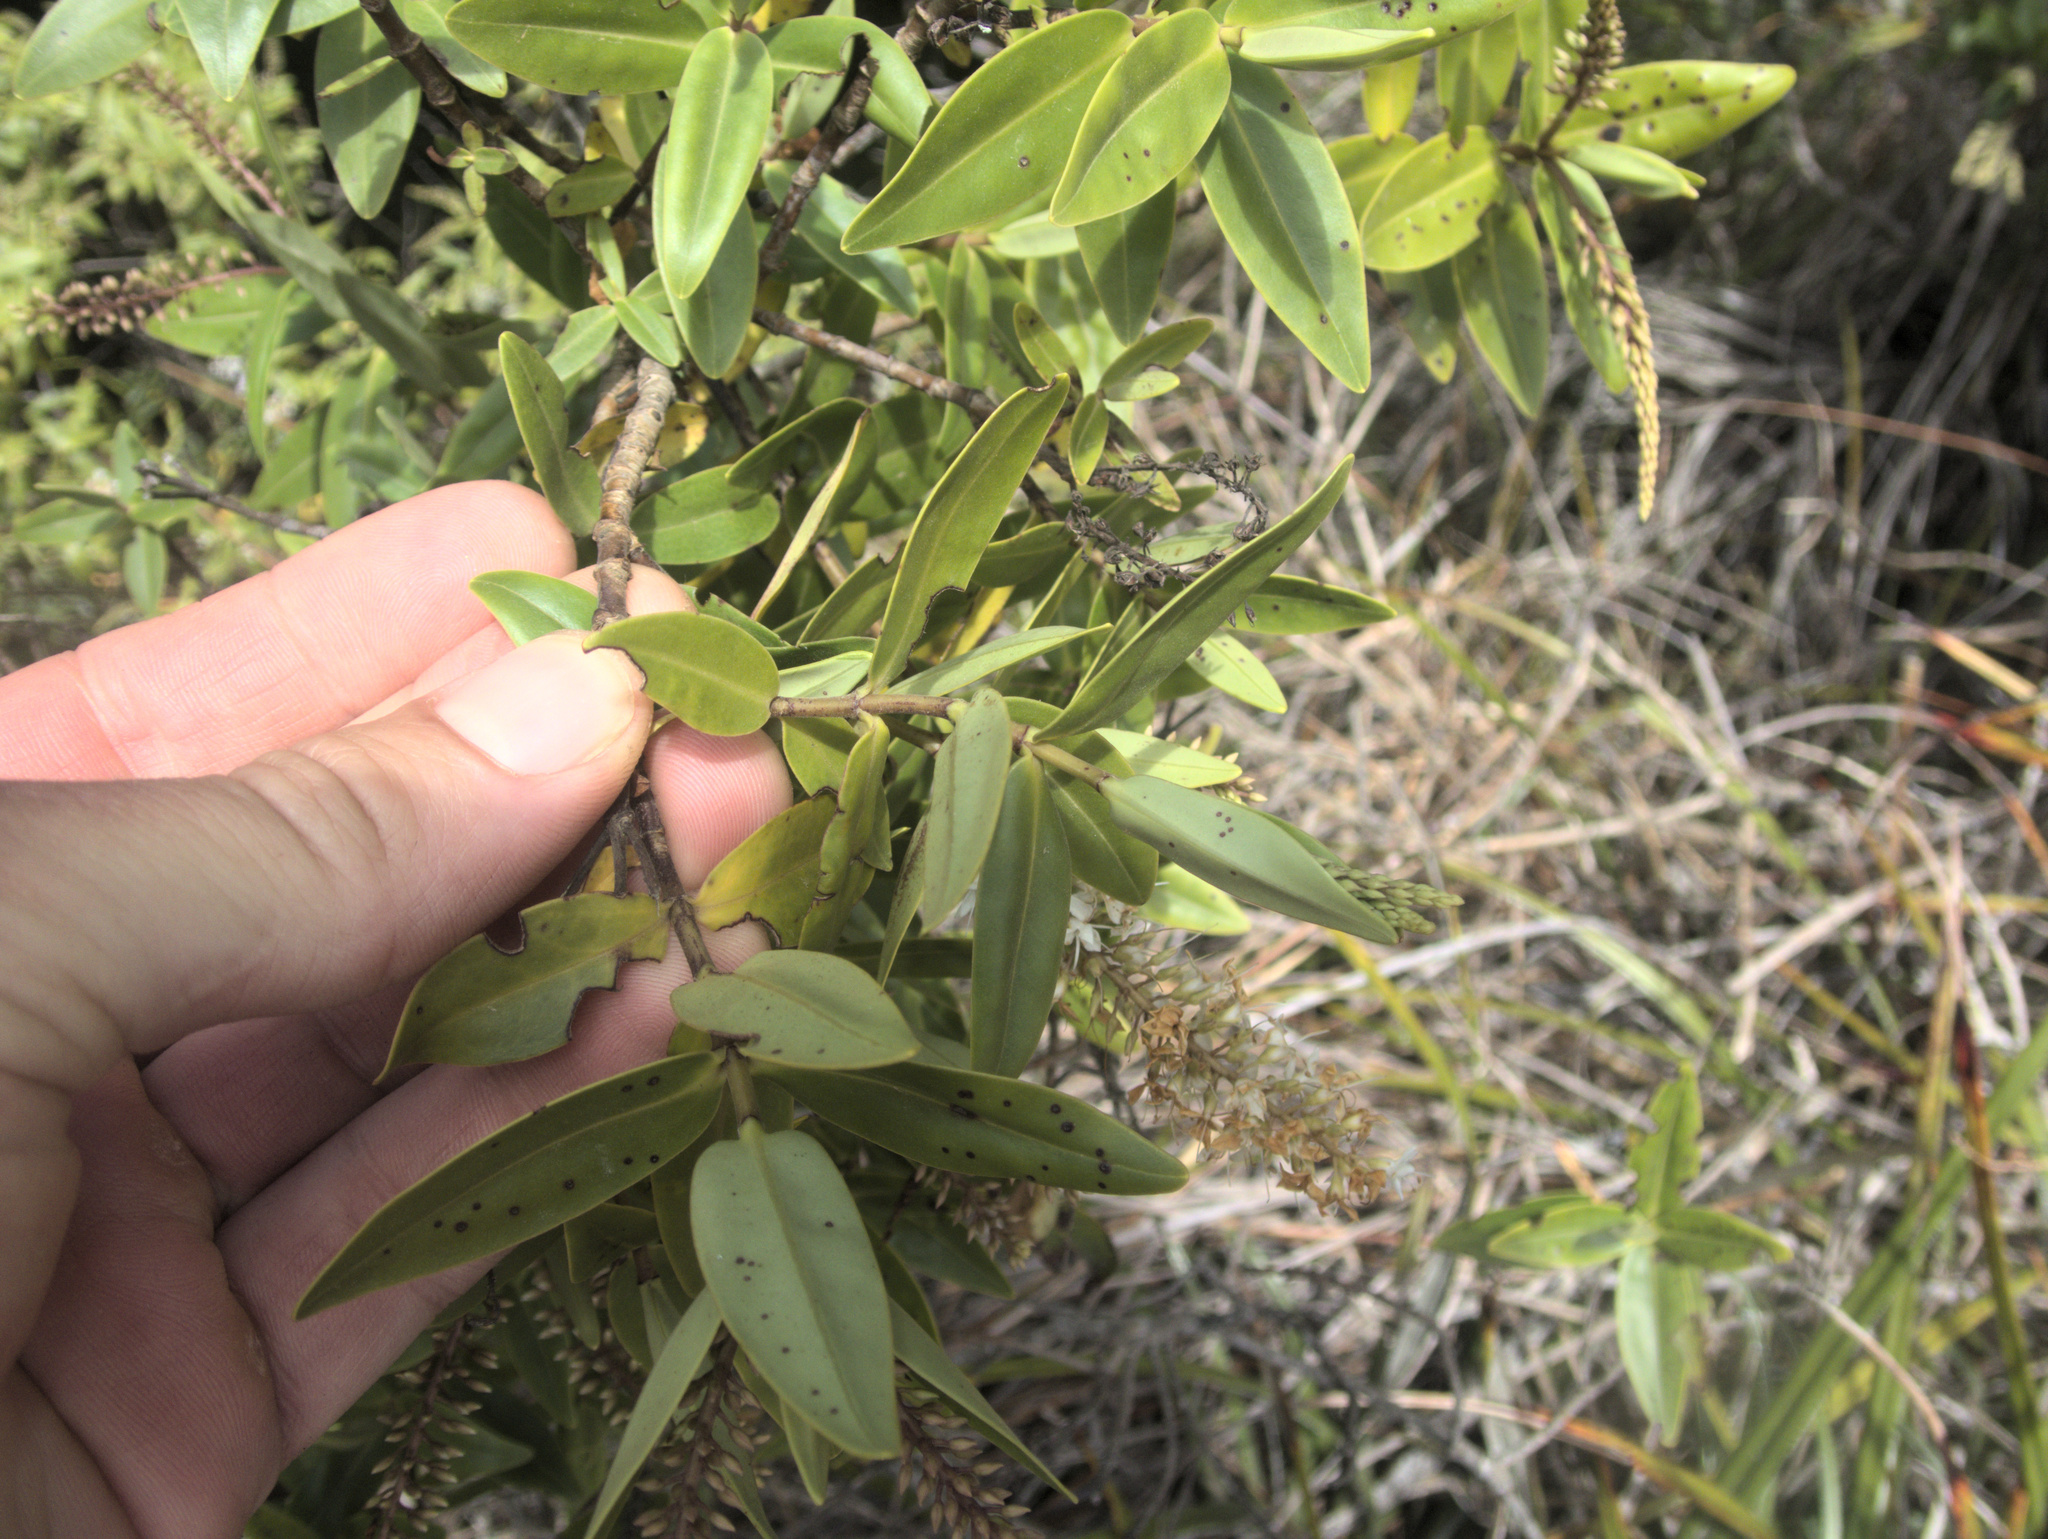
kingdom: Plantae
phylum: Tracheophyta
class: Magnoliopsida
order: Lamiales
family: Plantaginaceae
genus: Veronica
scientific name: Veronica ligustrifolia
